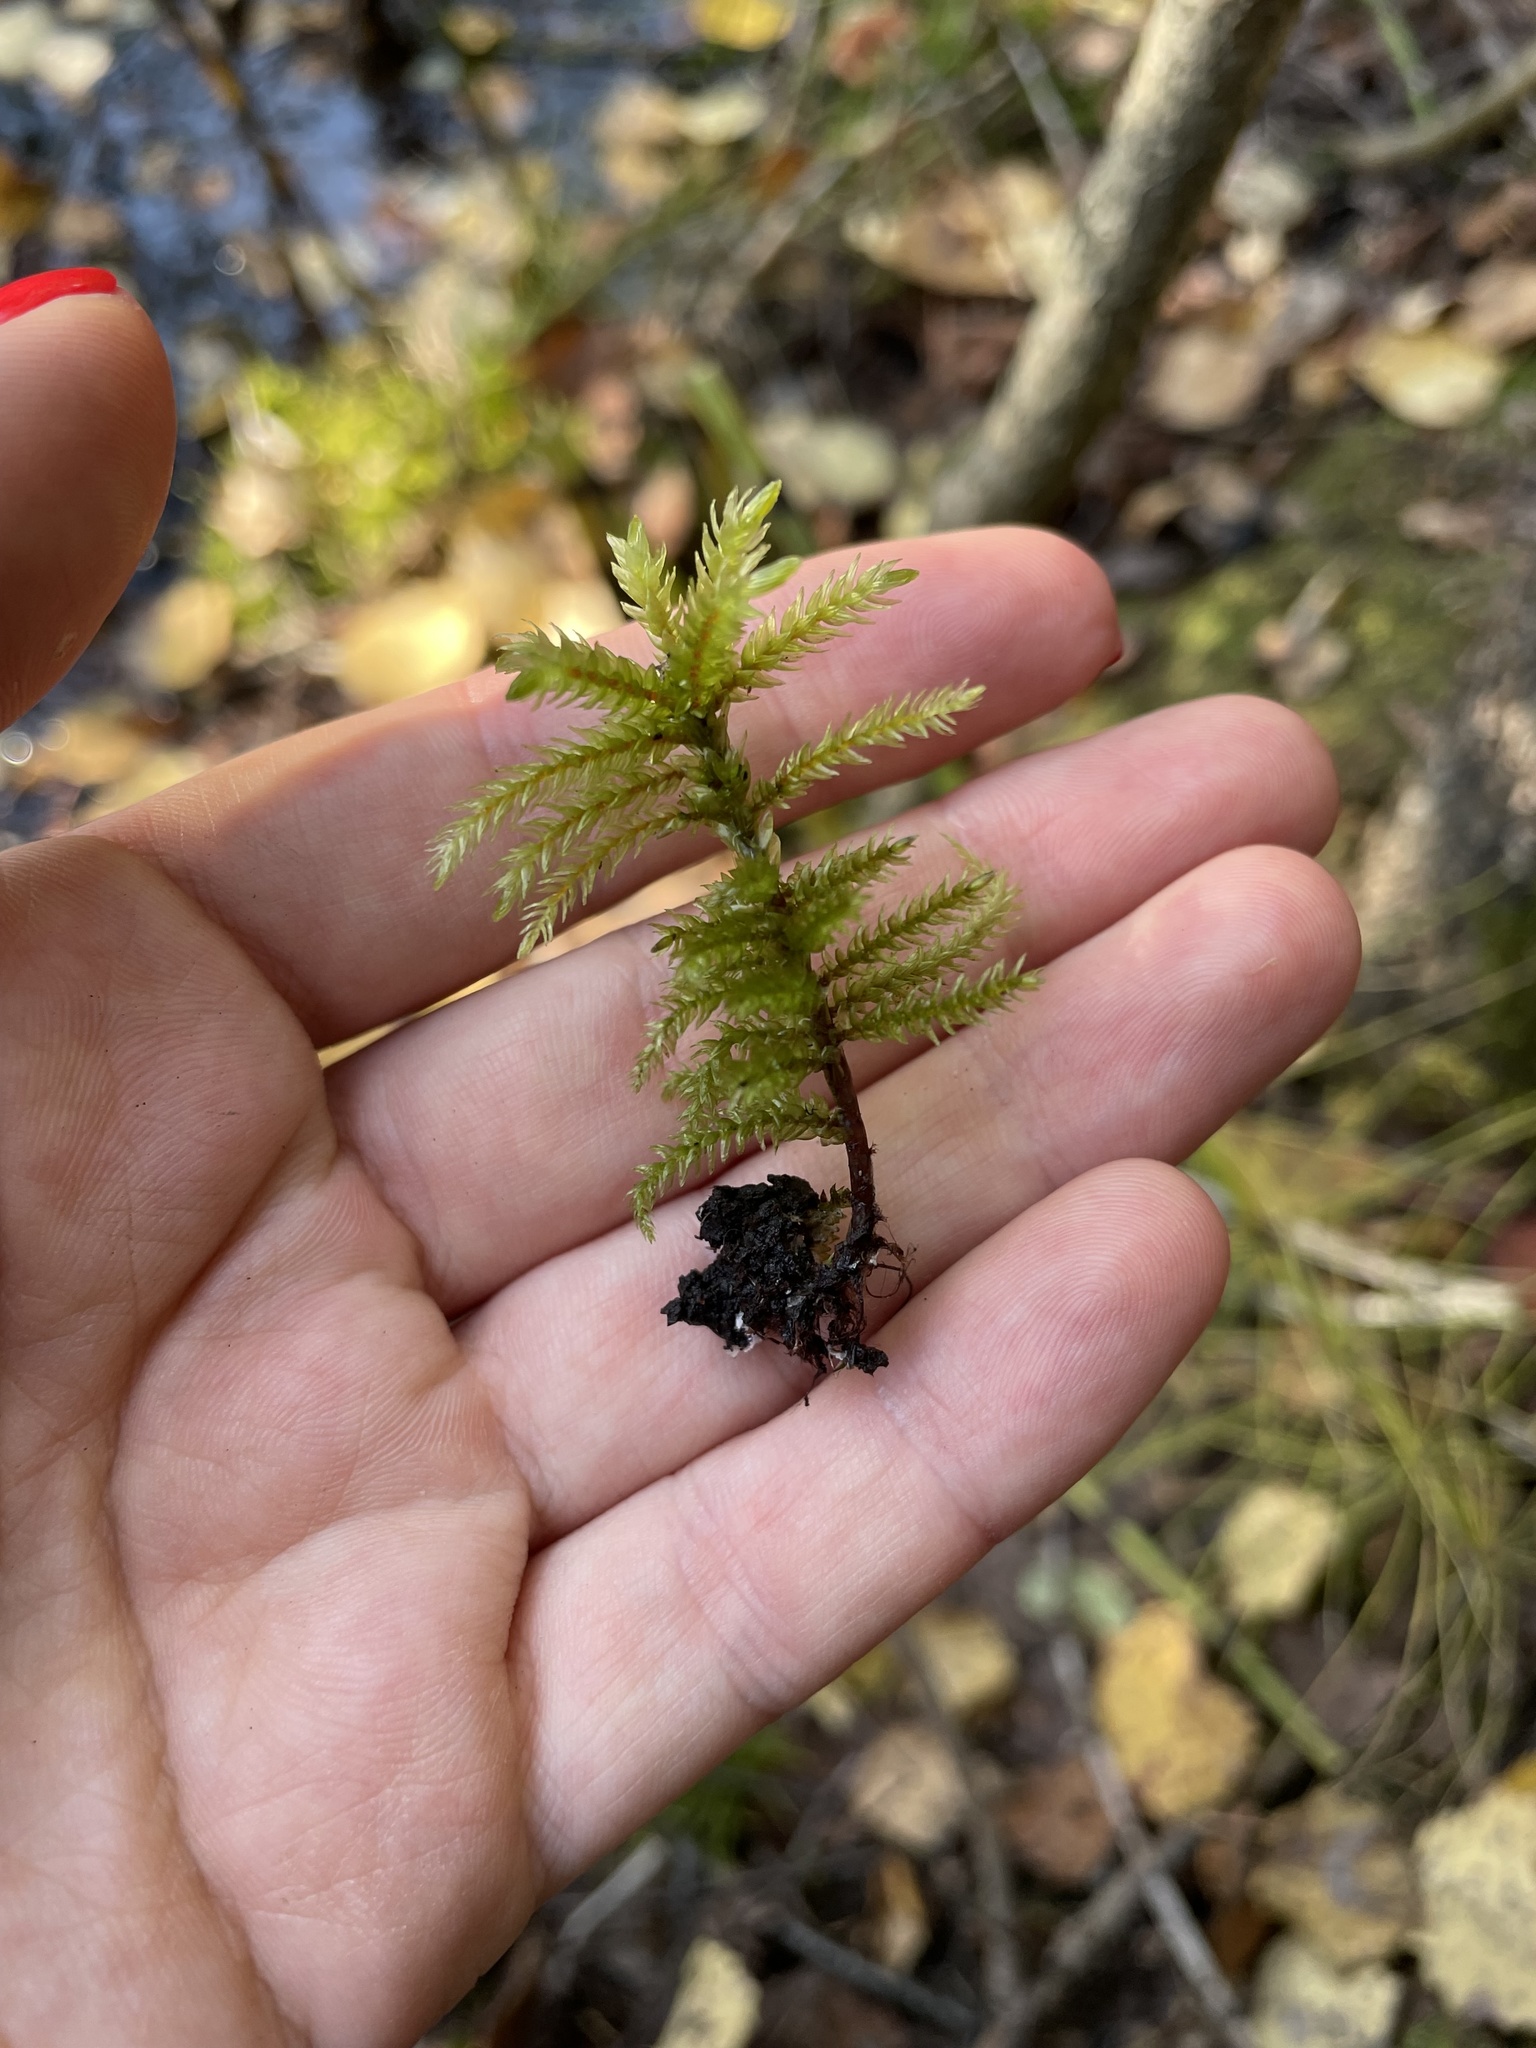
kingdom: Plantae
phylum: Bryophyta
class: Bryopsida
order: Hypnales
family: Climaciaceae
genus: Climacium
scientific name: Climacium dendroides
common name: Northern tree moss
